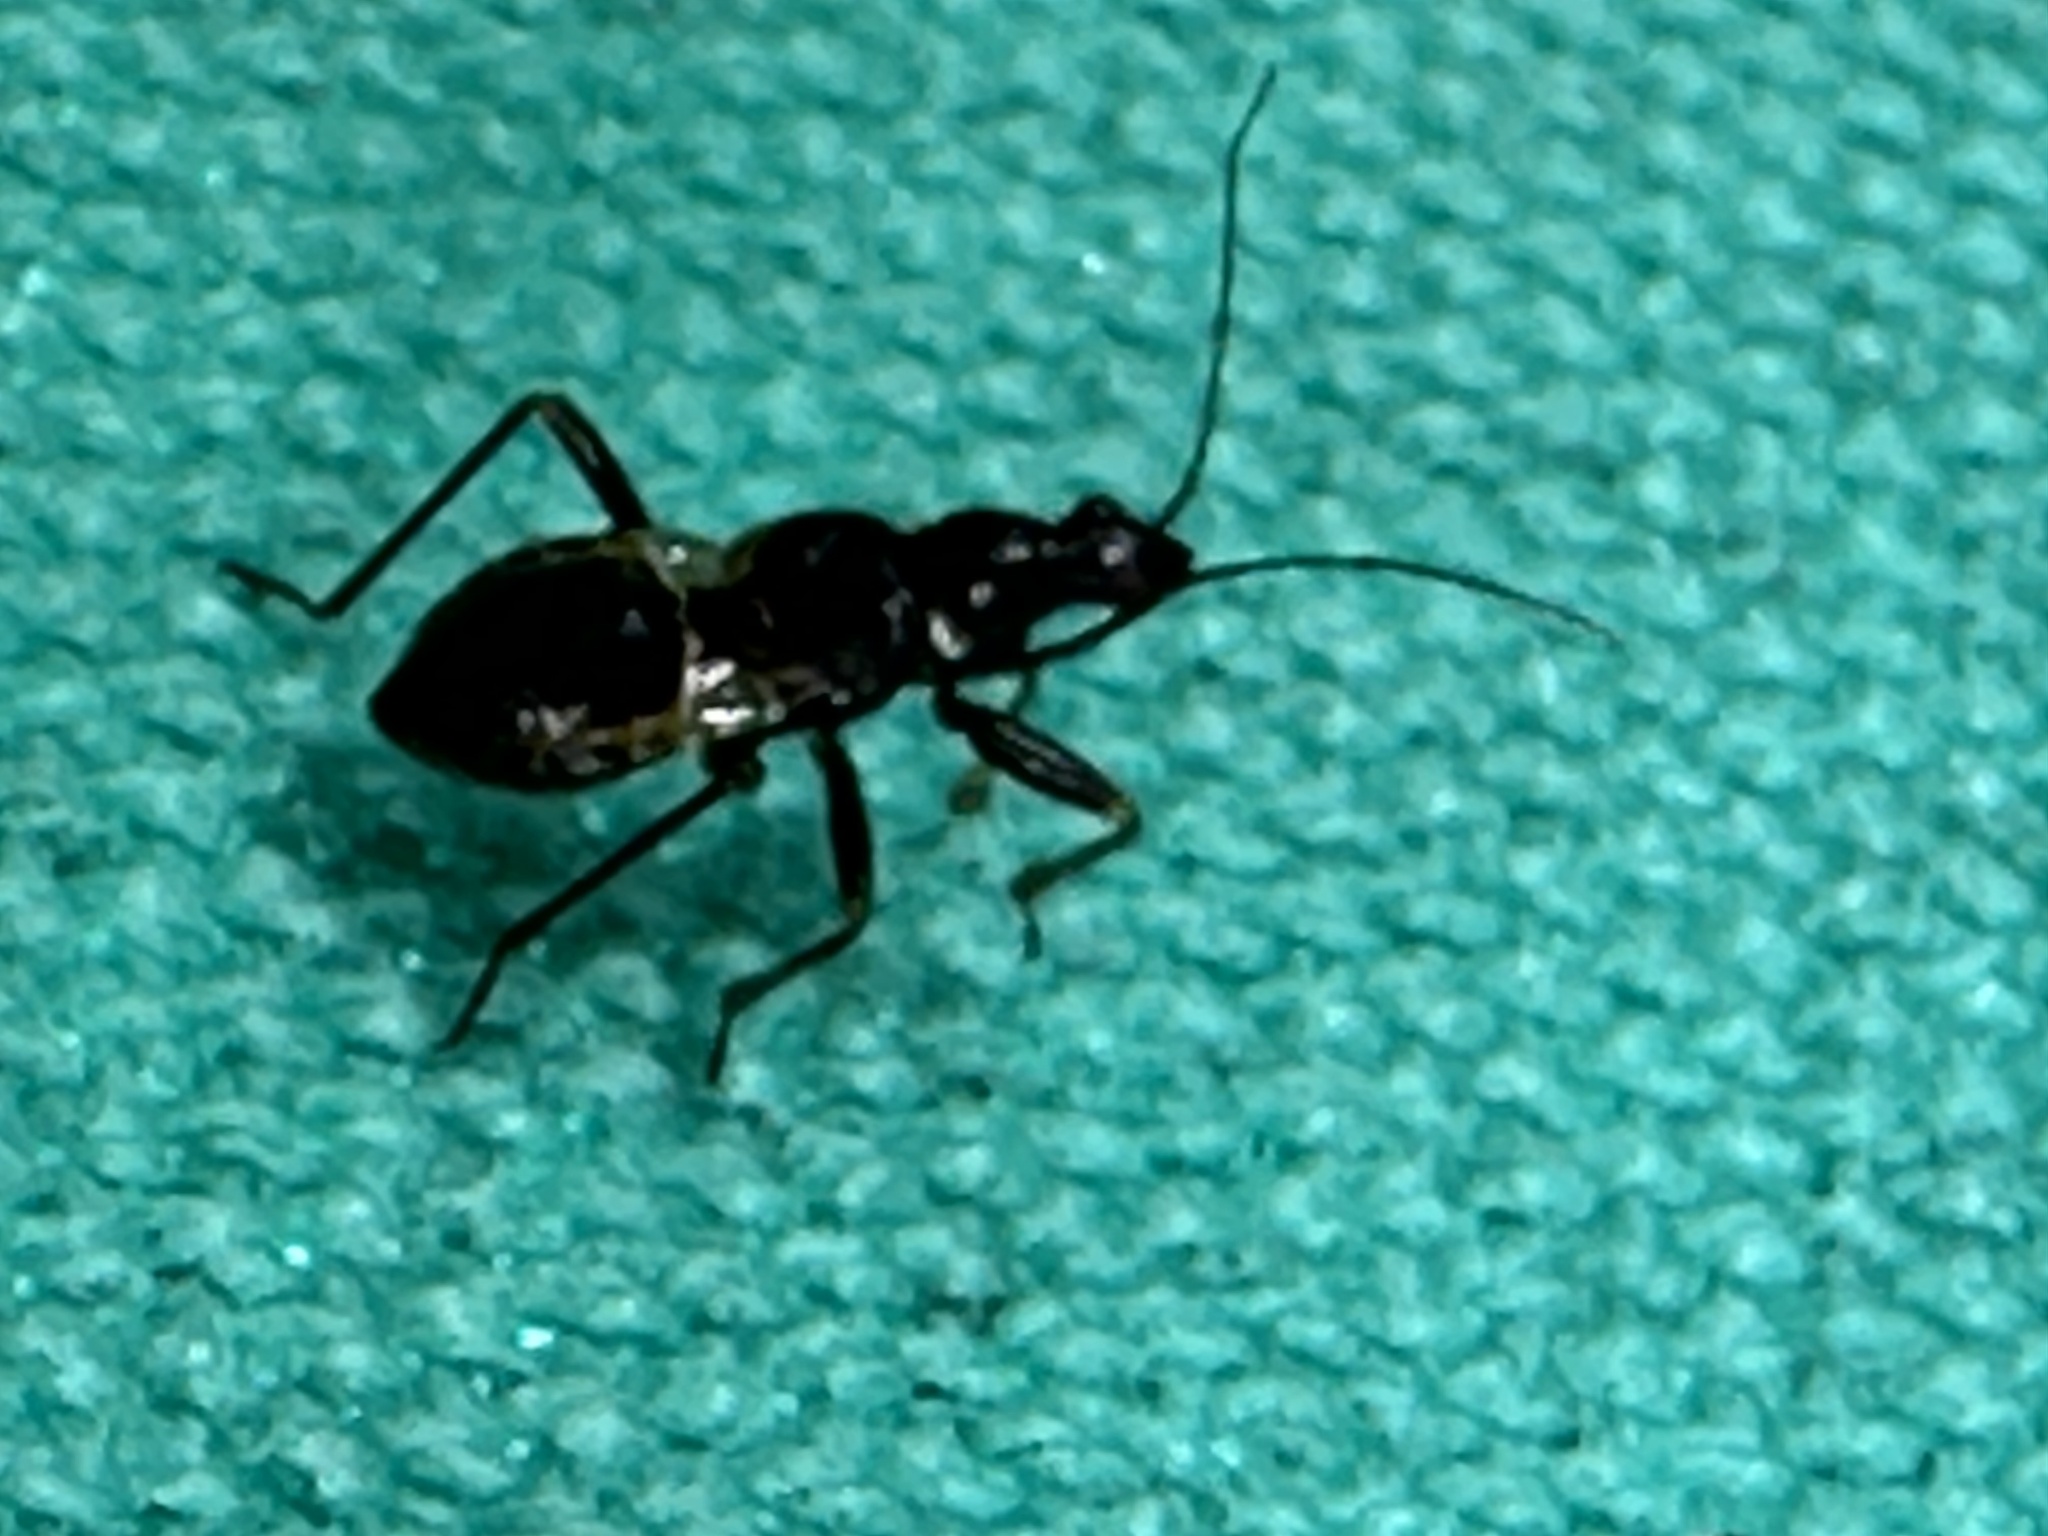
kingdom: Animalia
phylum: Arthropoda
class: Insecta
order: Hemiptera
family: Nabidae
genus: Himacerus
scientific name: Himacerus mirmicoides
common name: Ant damsel bug
